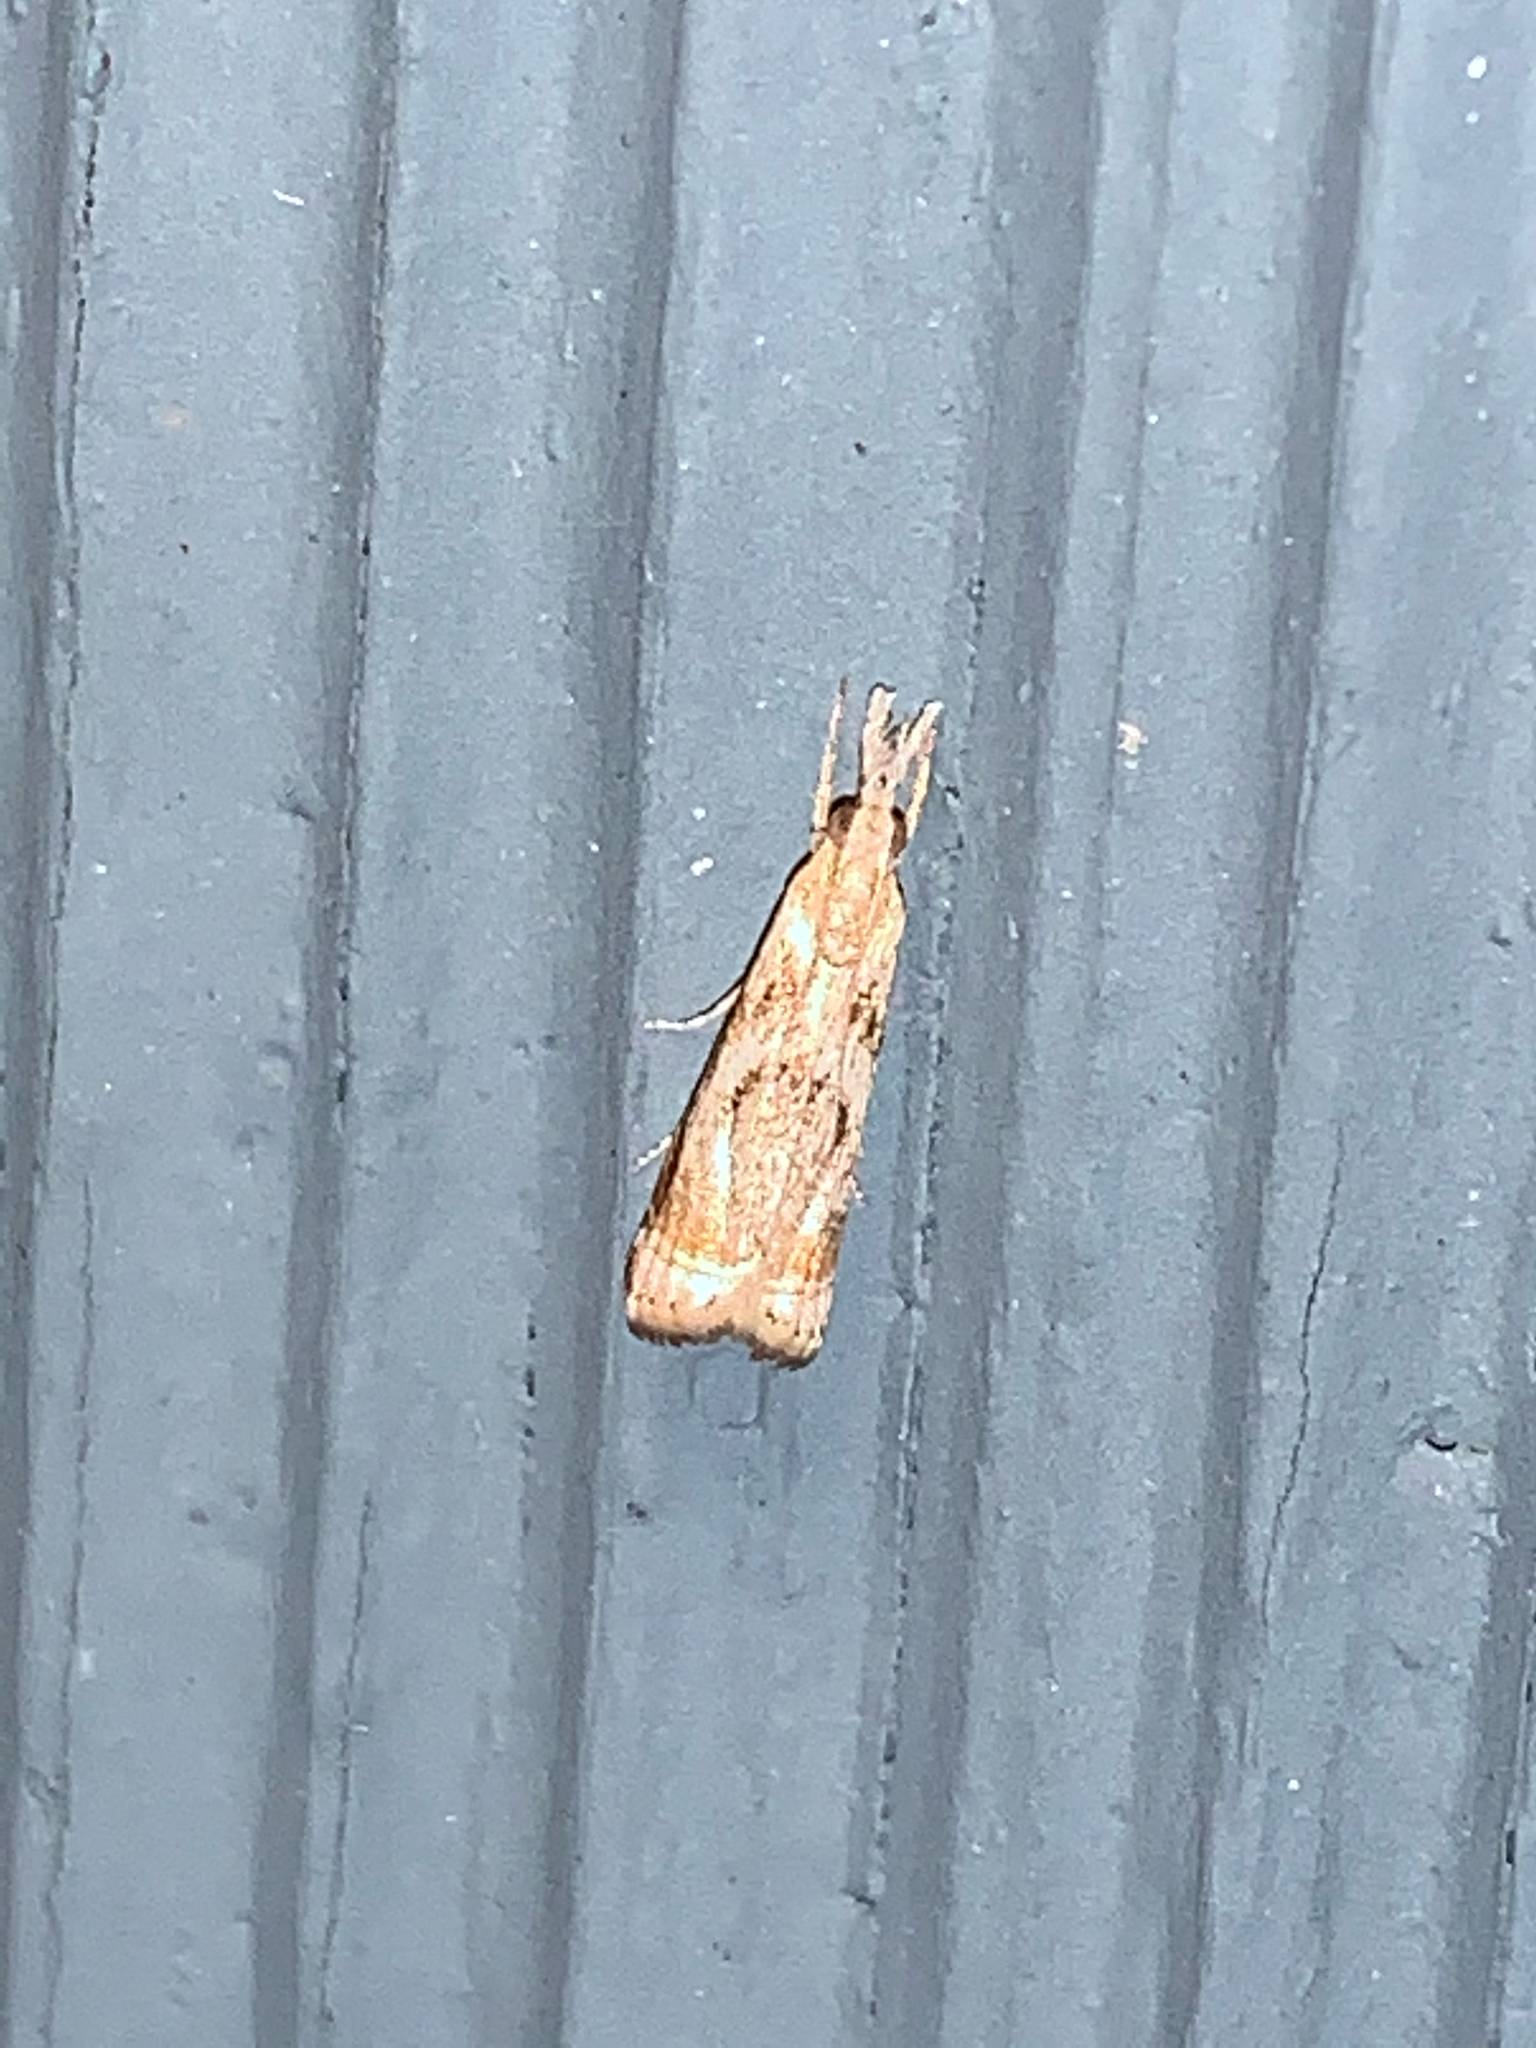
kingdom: Animalia
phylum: Arthropoda
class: Insecta
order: Lepidoptera
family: Crambidae
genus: Microcrambus
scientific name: Microcrambus elegans
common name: Elegant grass-veneer
